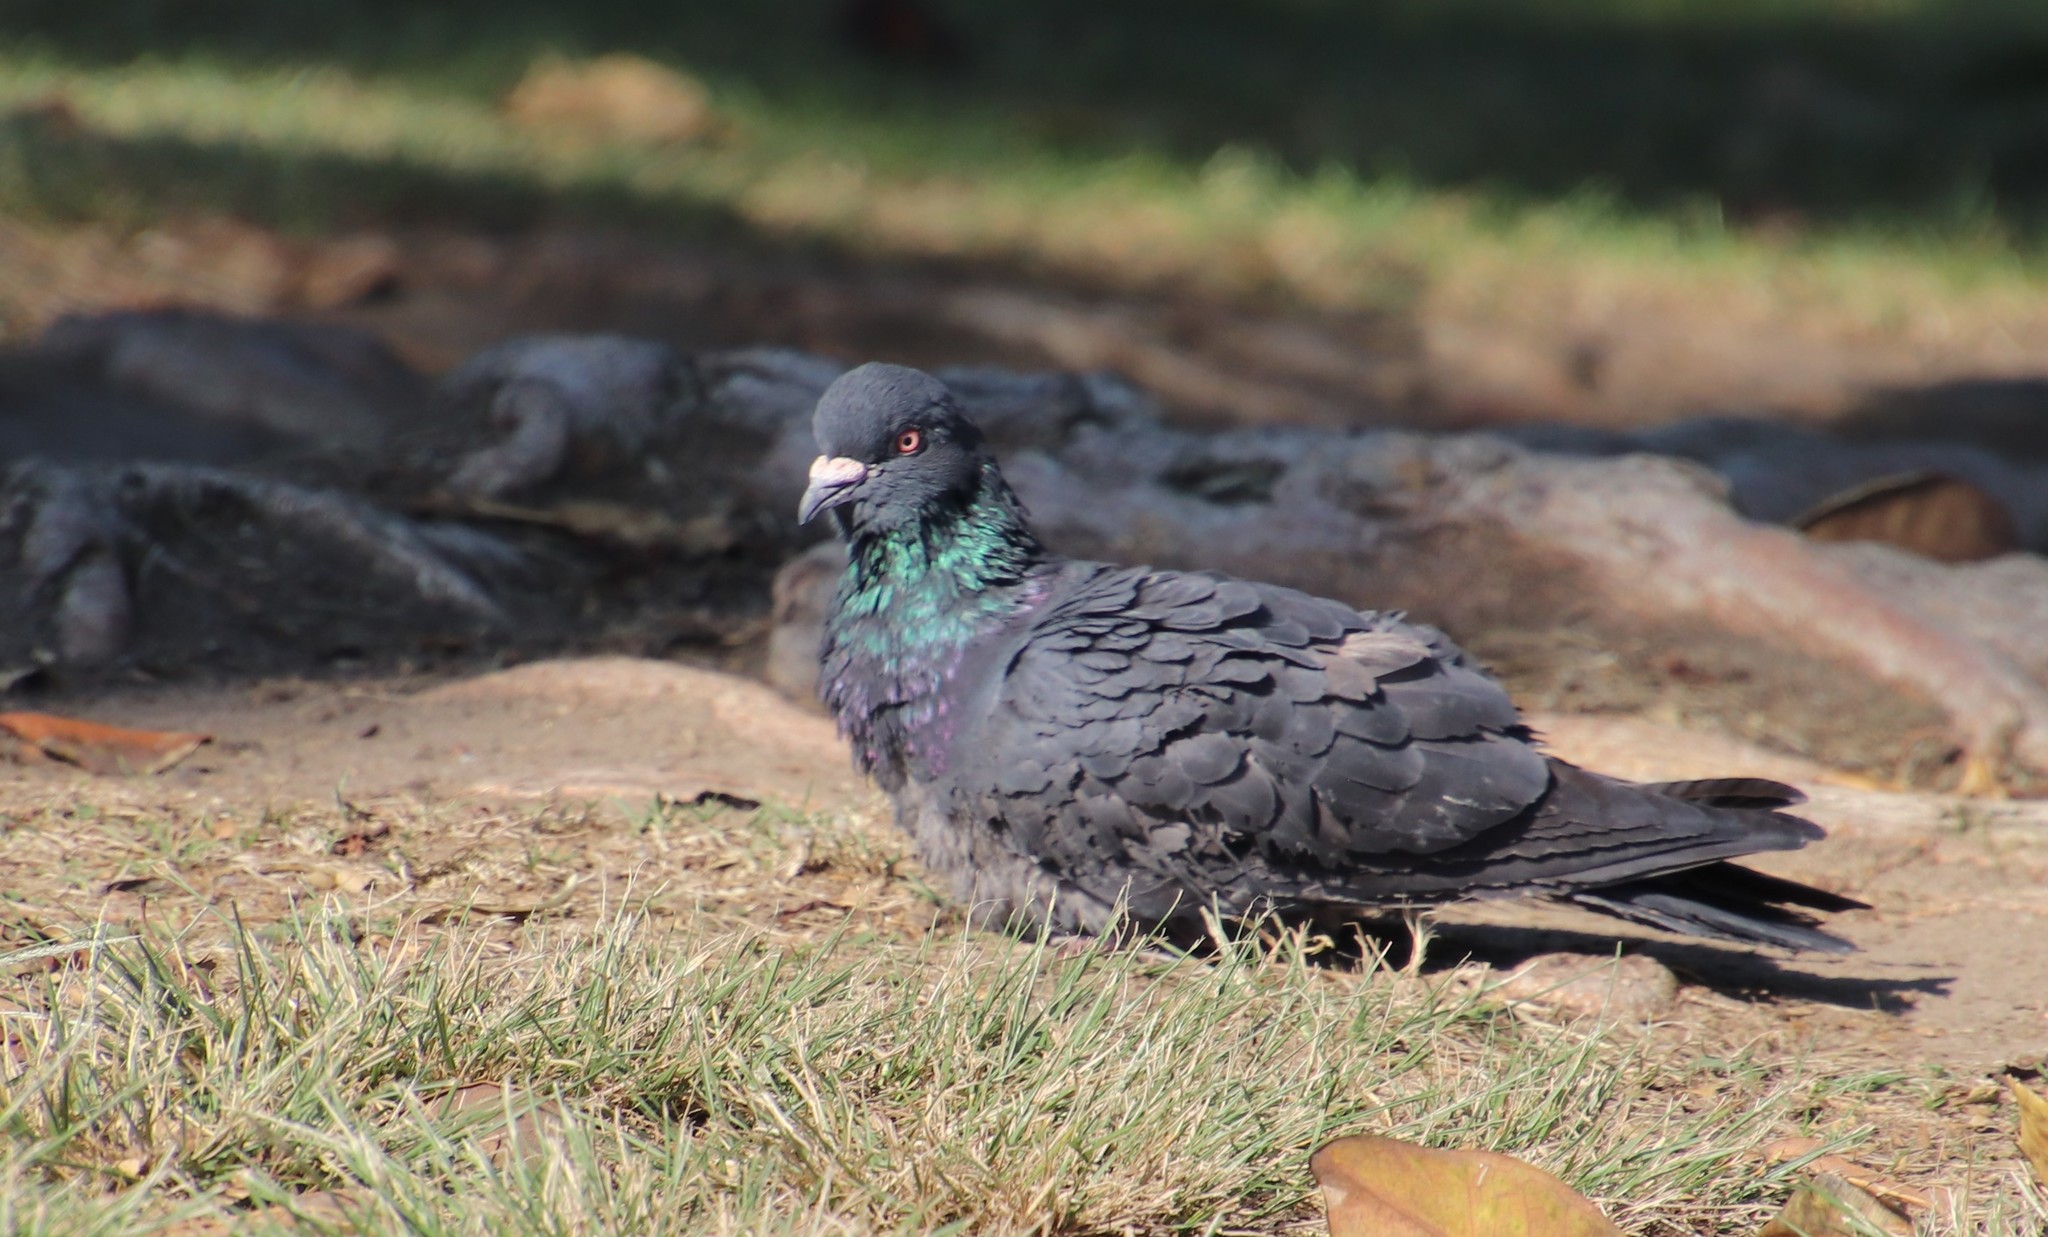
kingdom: Animalia
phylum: Chordata
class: Aves
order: Columbiformes
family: Columbidae
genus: Columba
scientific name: Columba livia
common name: Rock pigeon
